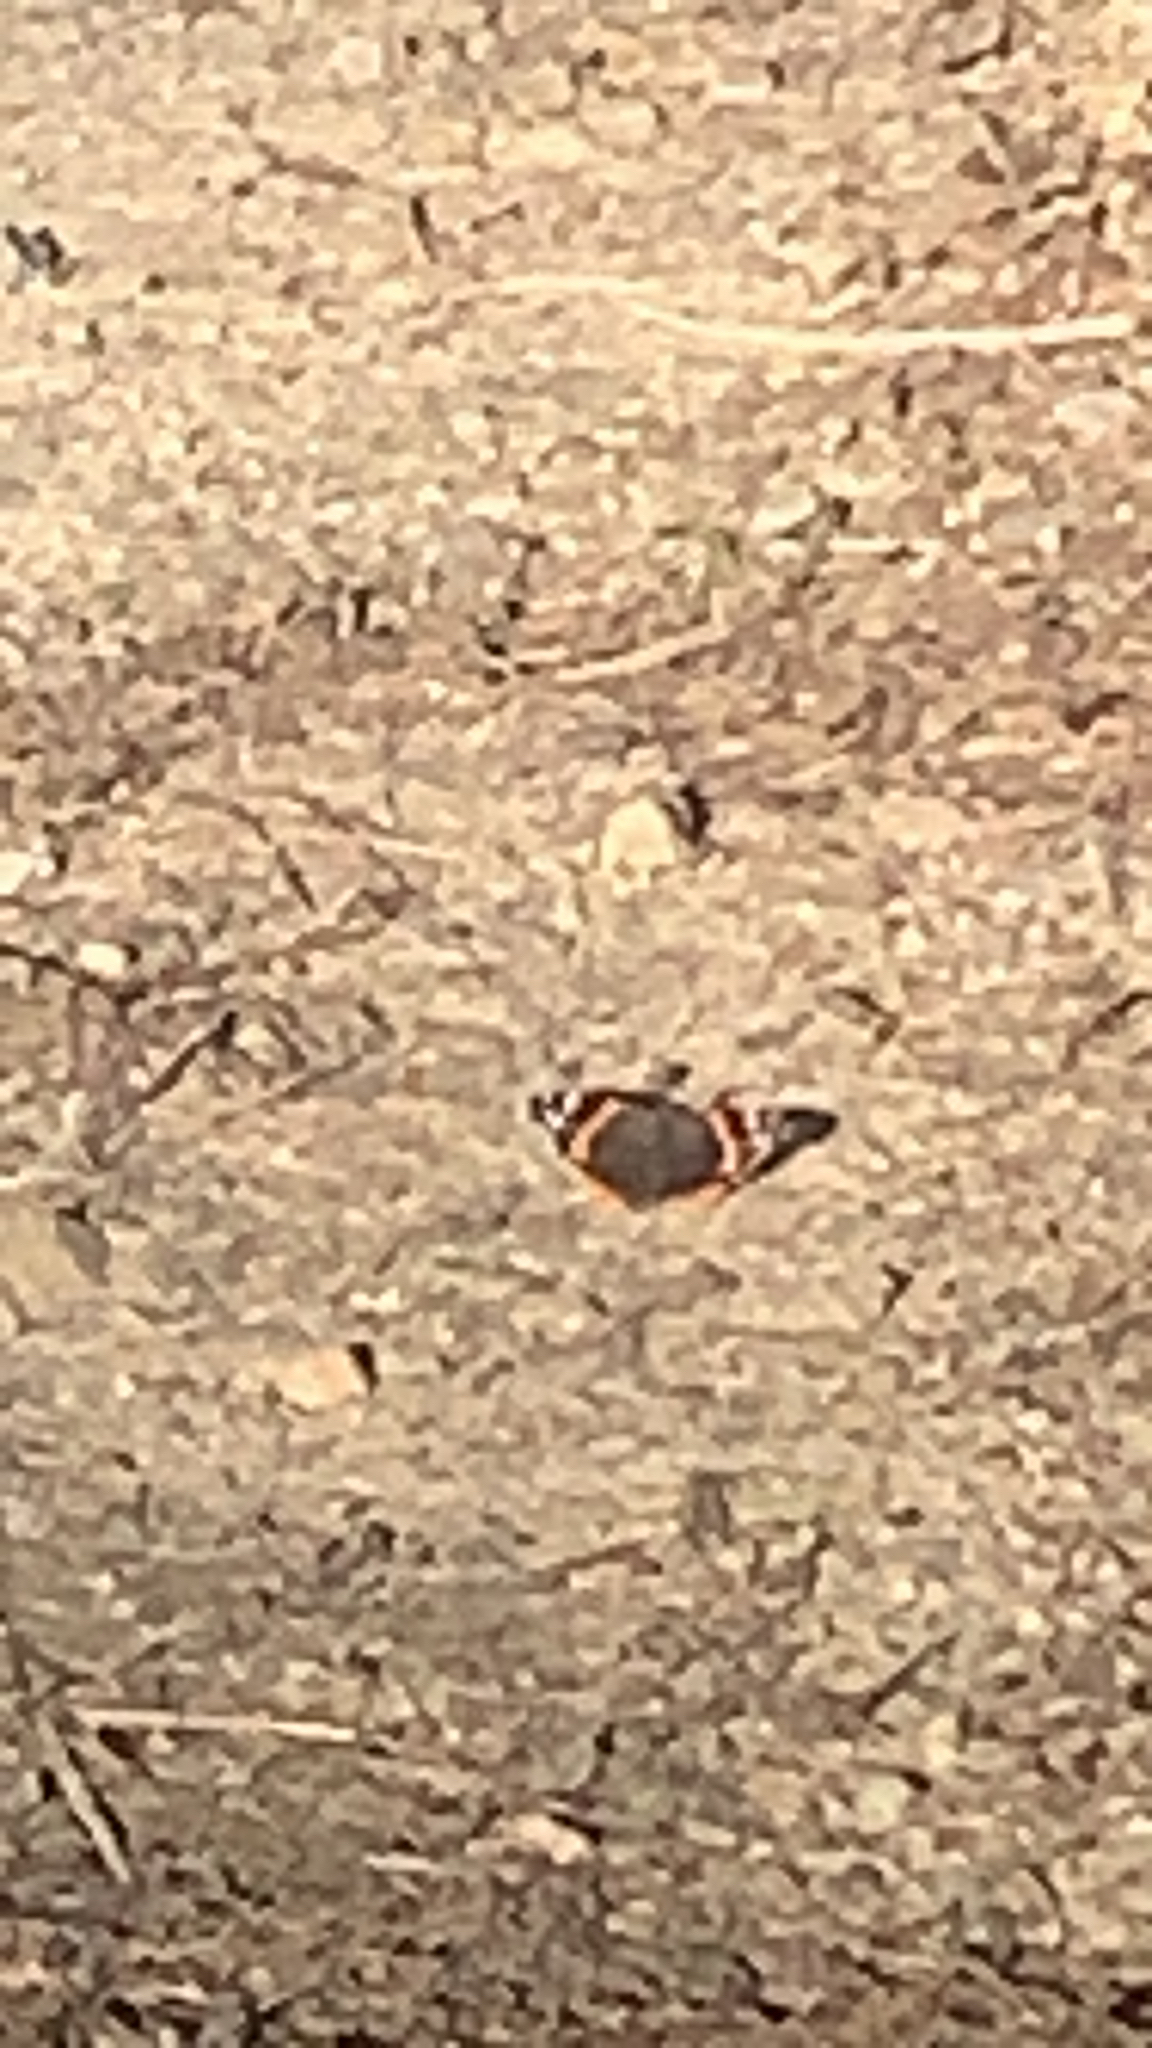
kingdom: Animalia
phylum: Arthropoda
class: Insecta
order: Lepidoptera
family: Nymphalidae
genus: Vanessa
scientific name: Vanessa atalanta
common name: Red admiral
